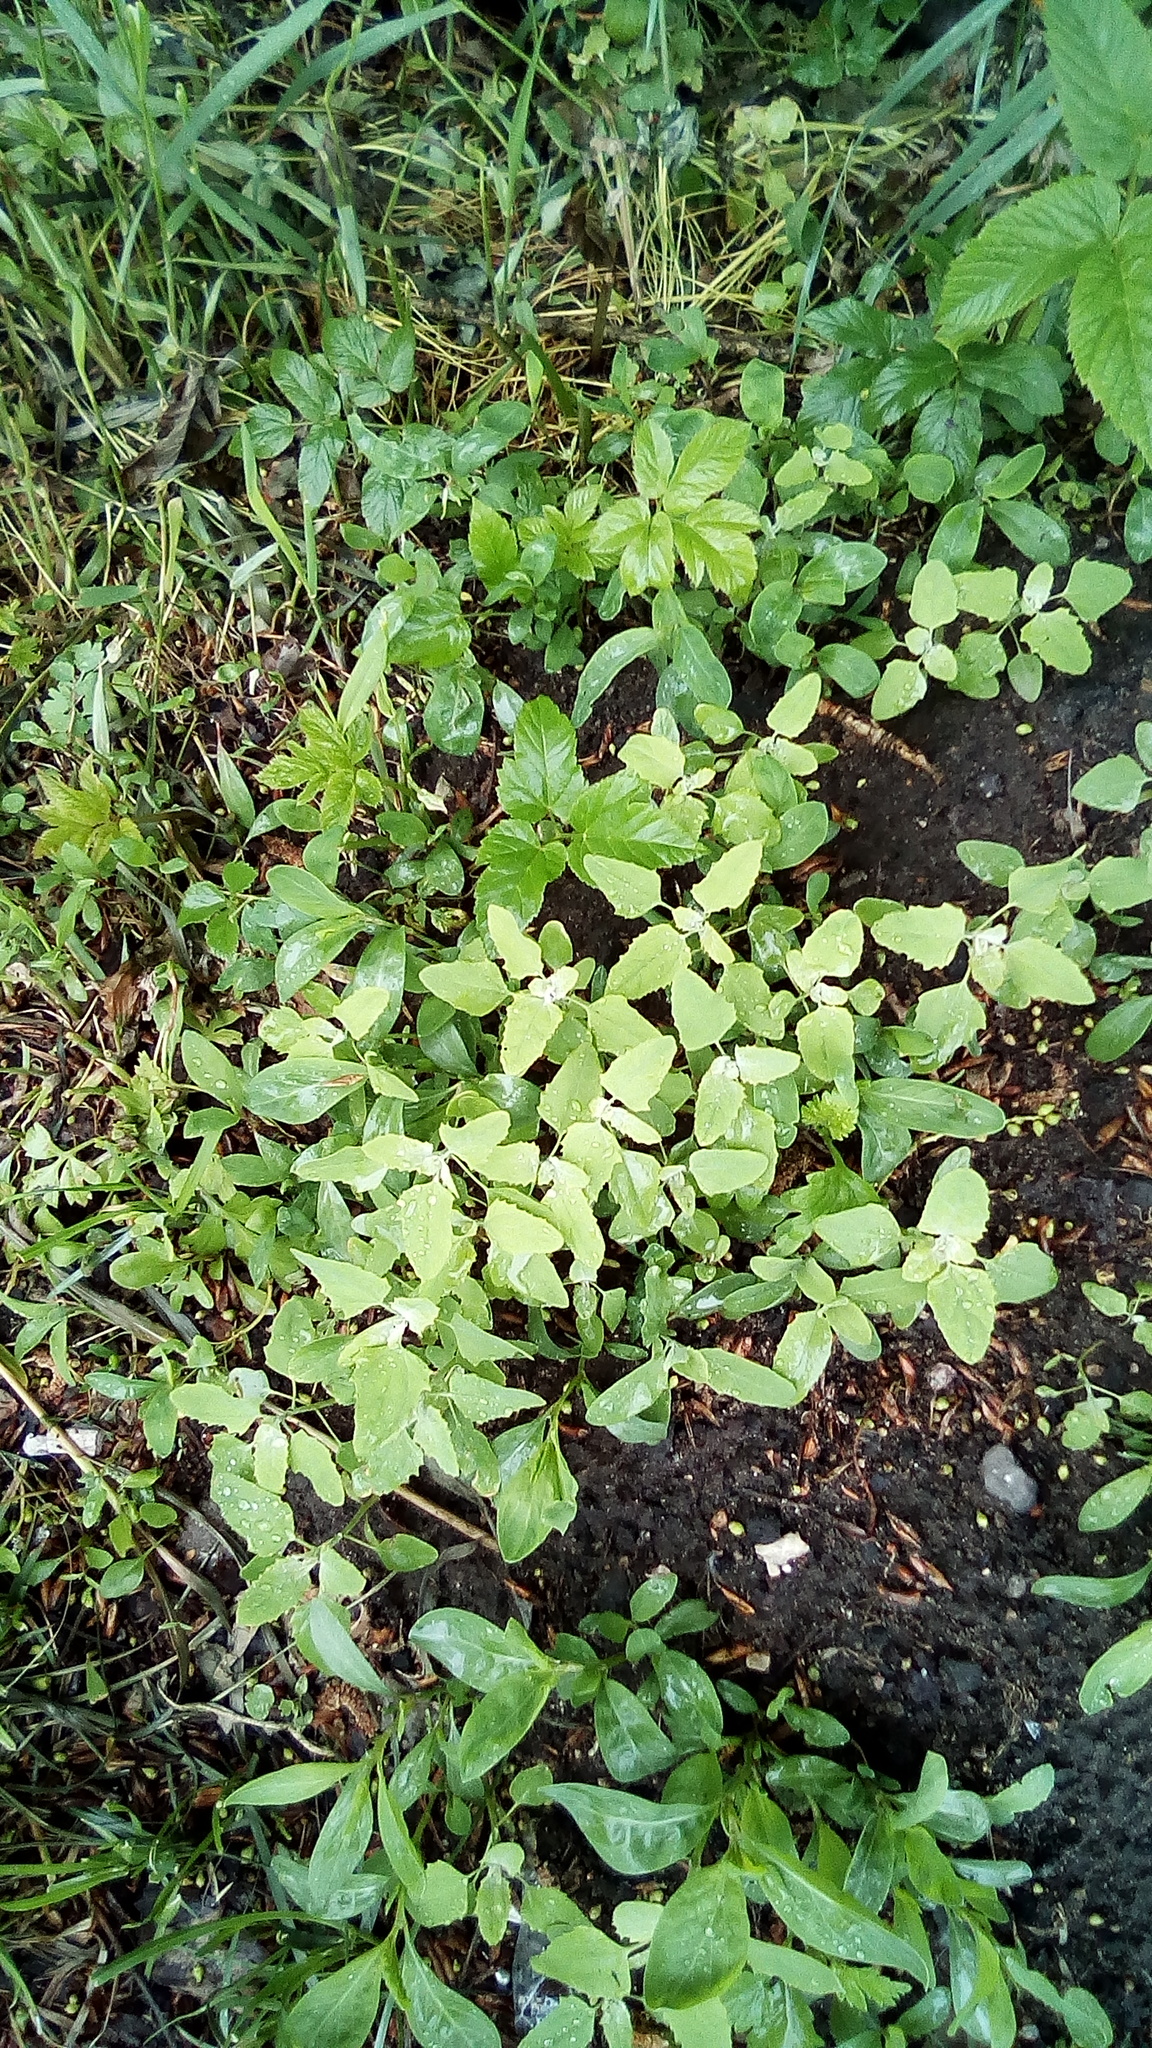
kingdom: Plantae
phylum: Tracheophyta
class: Magnoliopsida
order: Caryophyllales
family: Amaranthaceae
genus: Chenopodium
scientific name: Chenopodium album
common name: Fat-hen
